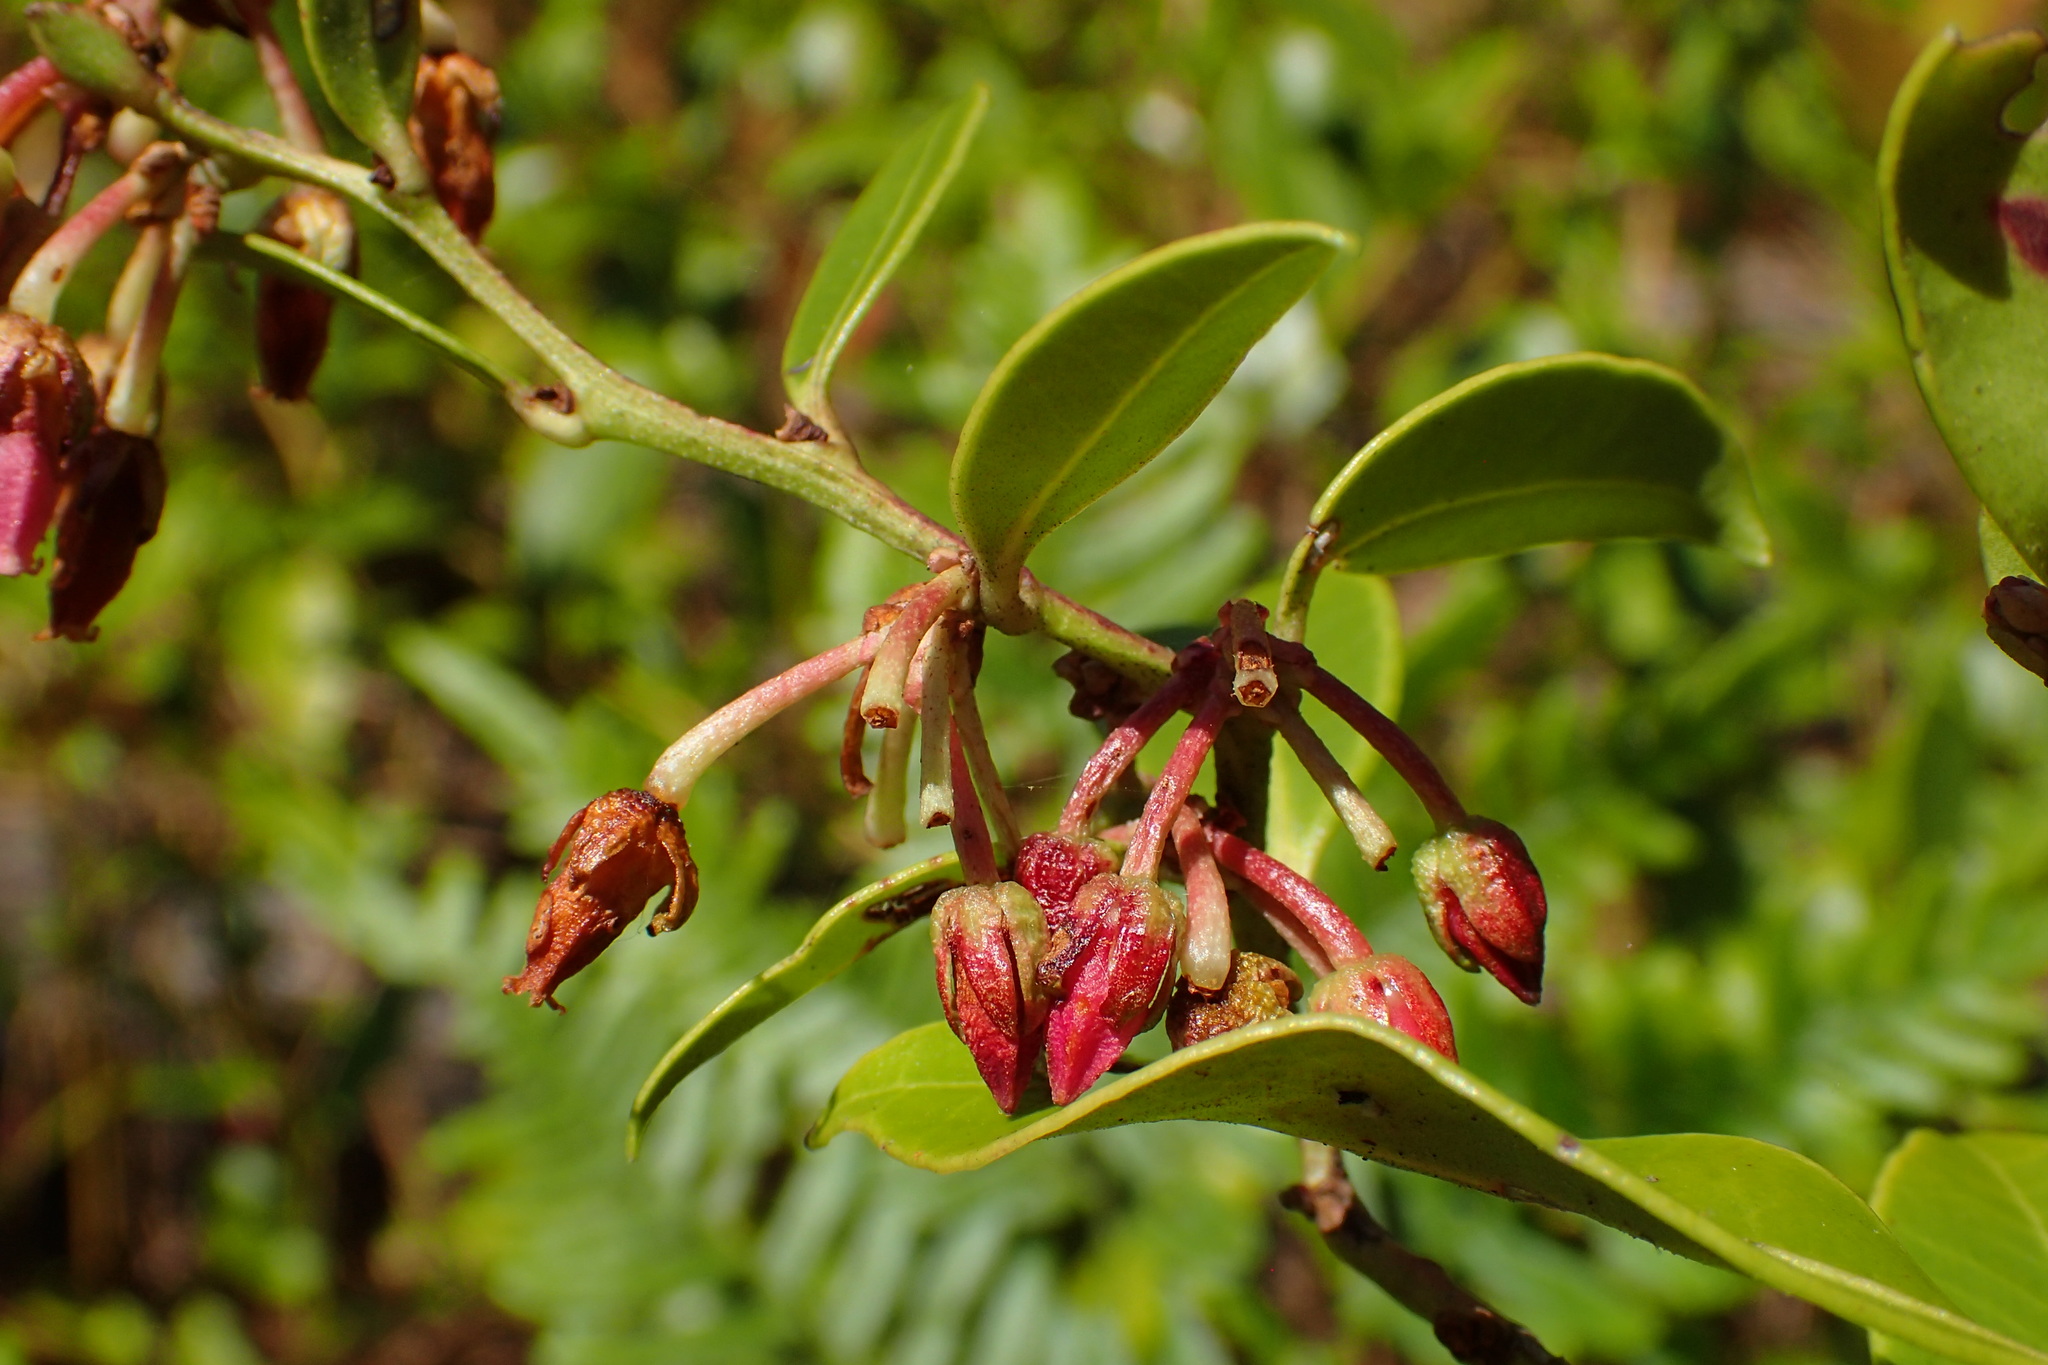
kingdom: Plantae
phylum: Tracheophyta
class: Magnoliopsida
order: Ericales
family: Ericaceae
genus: Lyonia
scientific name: Lyonia lucida
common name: Fetterbush
